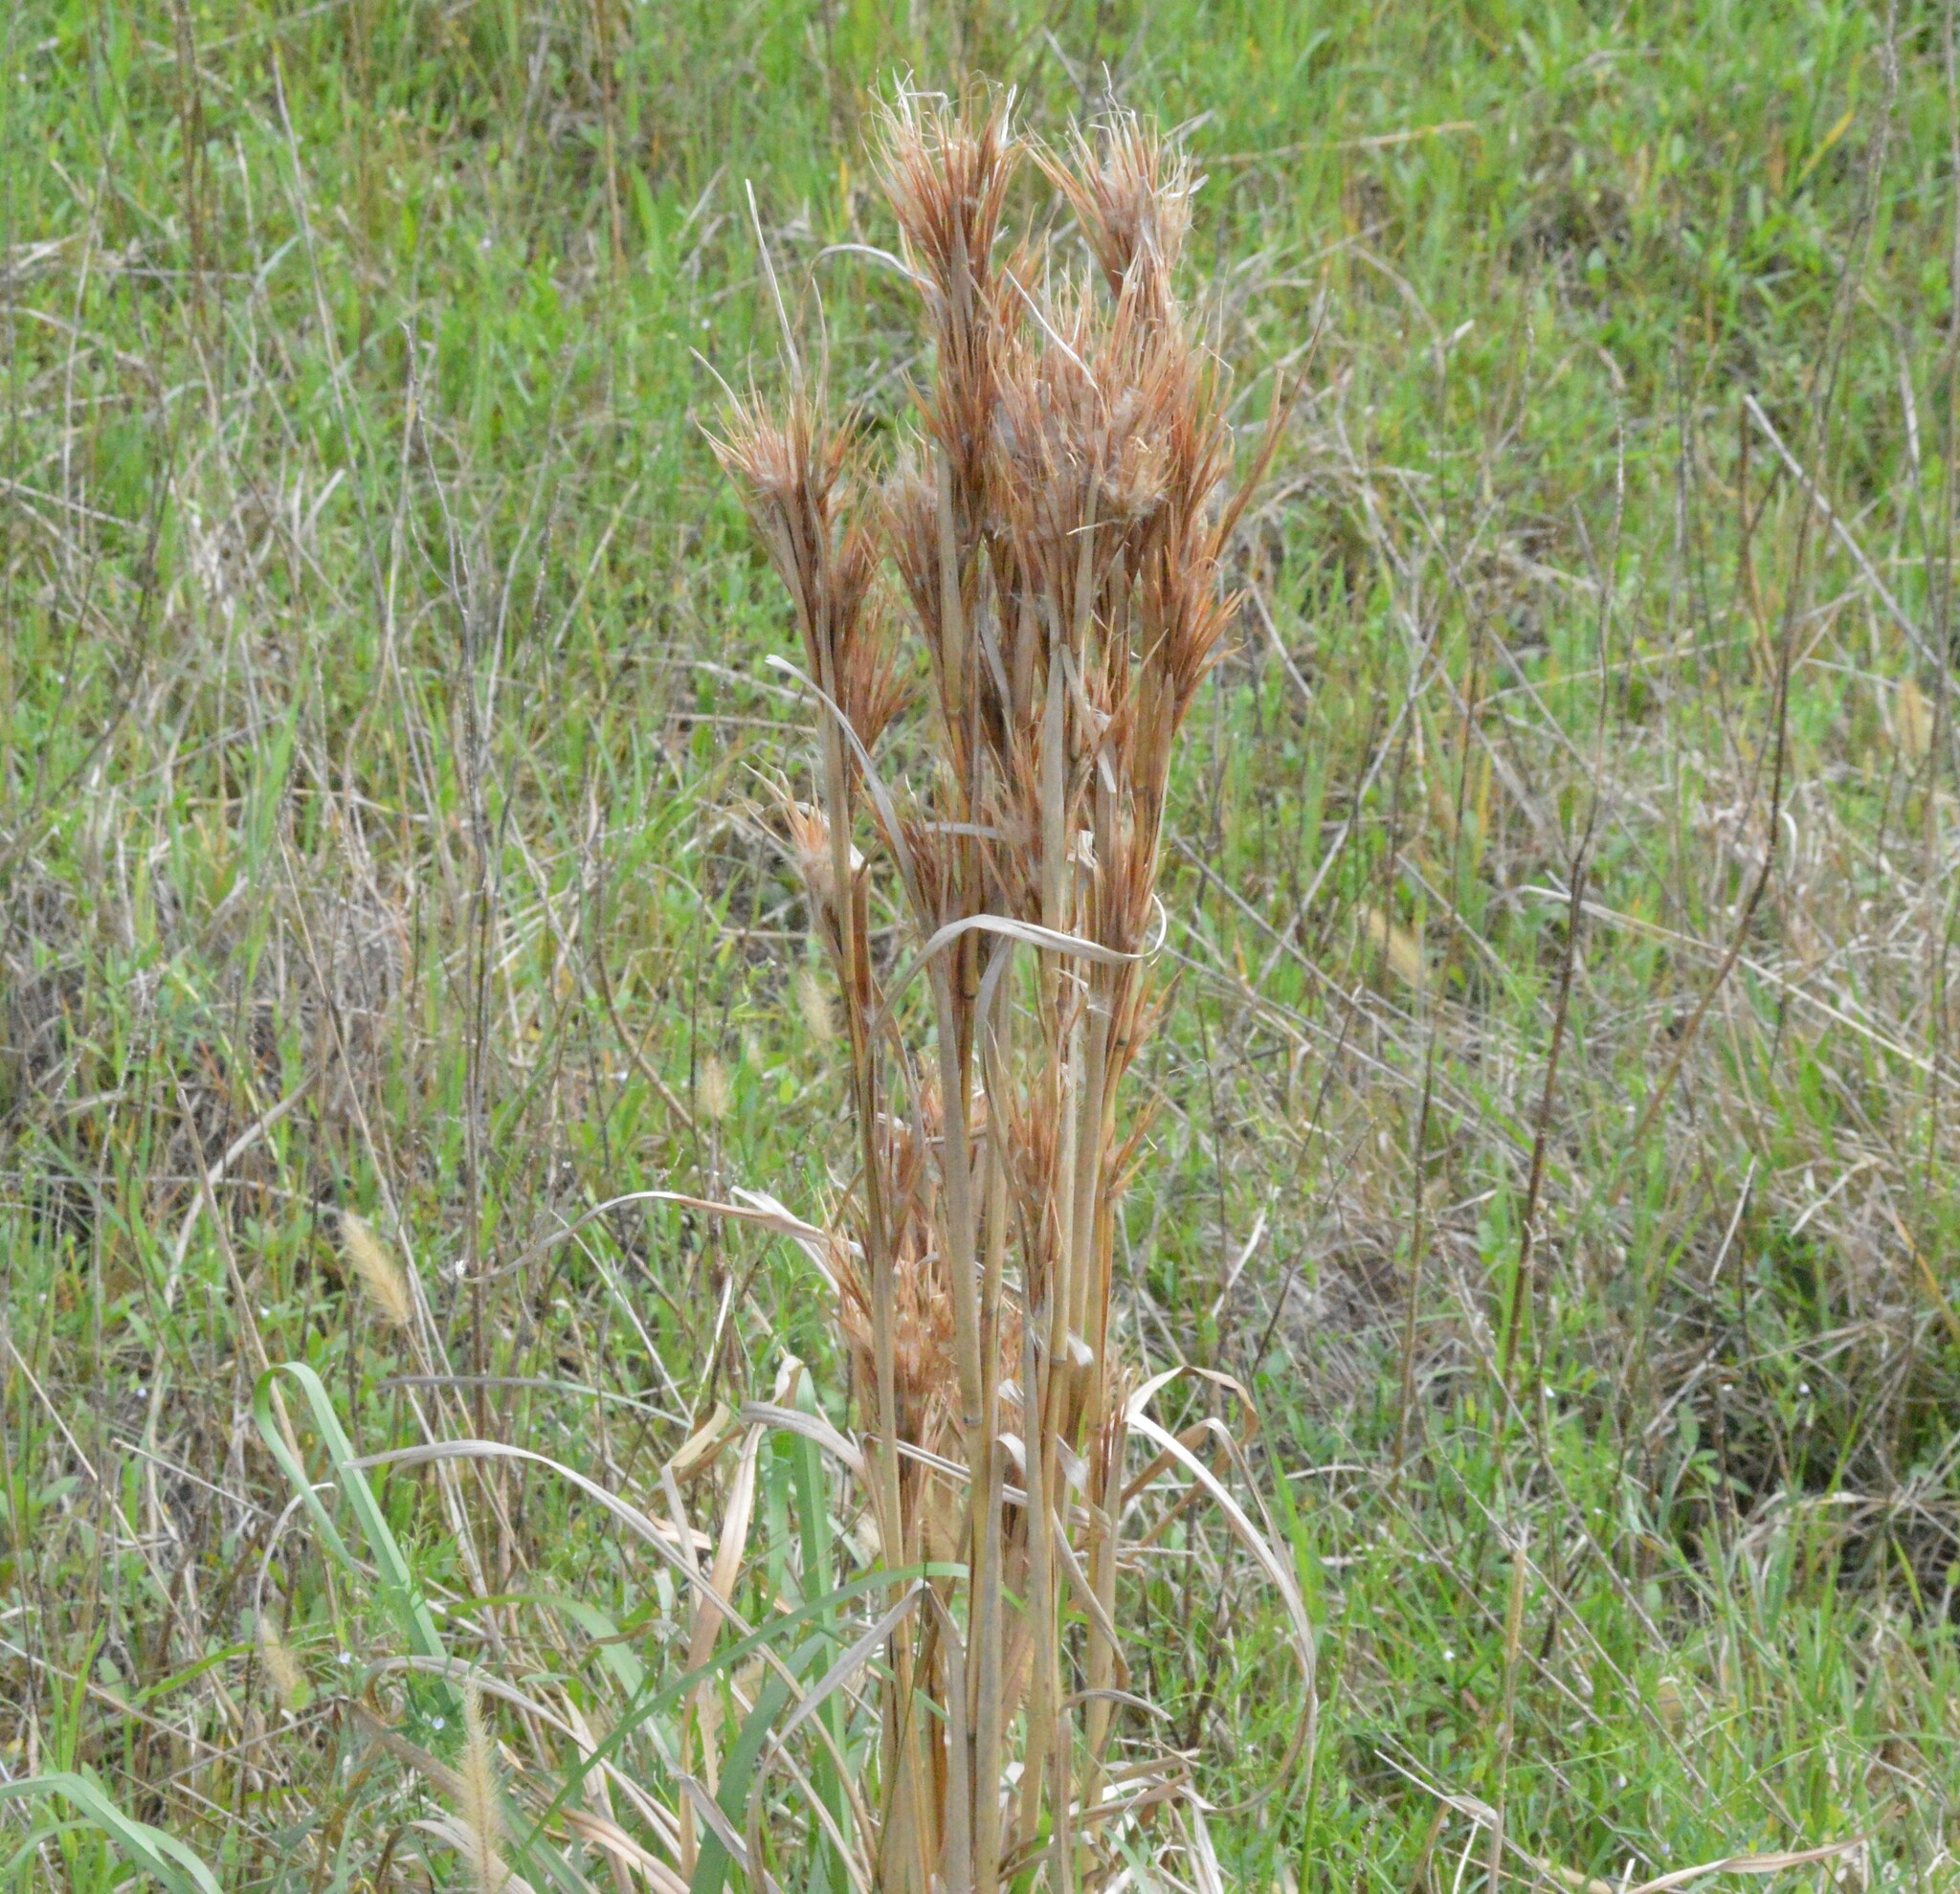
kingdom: Plantae
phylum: Tracheophyta
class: Liliopsida
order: Poales
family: Poaceae
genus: Andropogon
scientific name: Andropogon tenuispatheus
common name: Bushy bluestem
